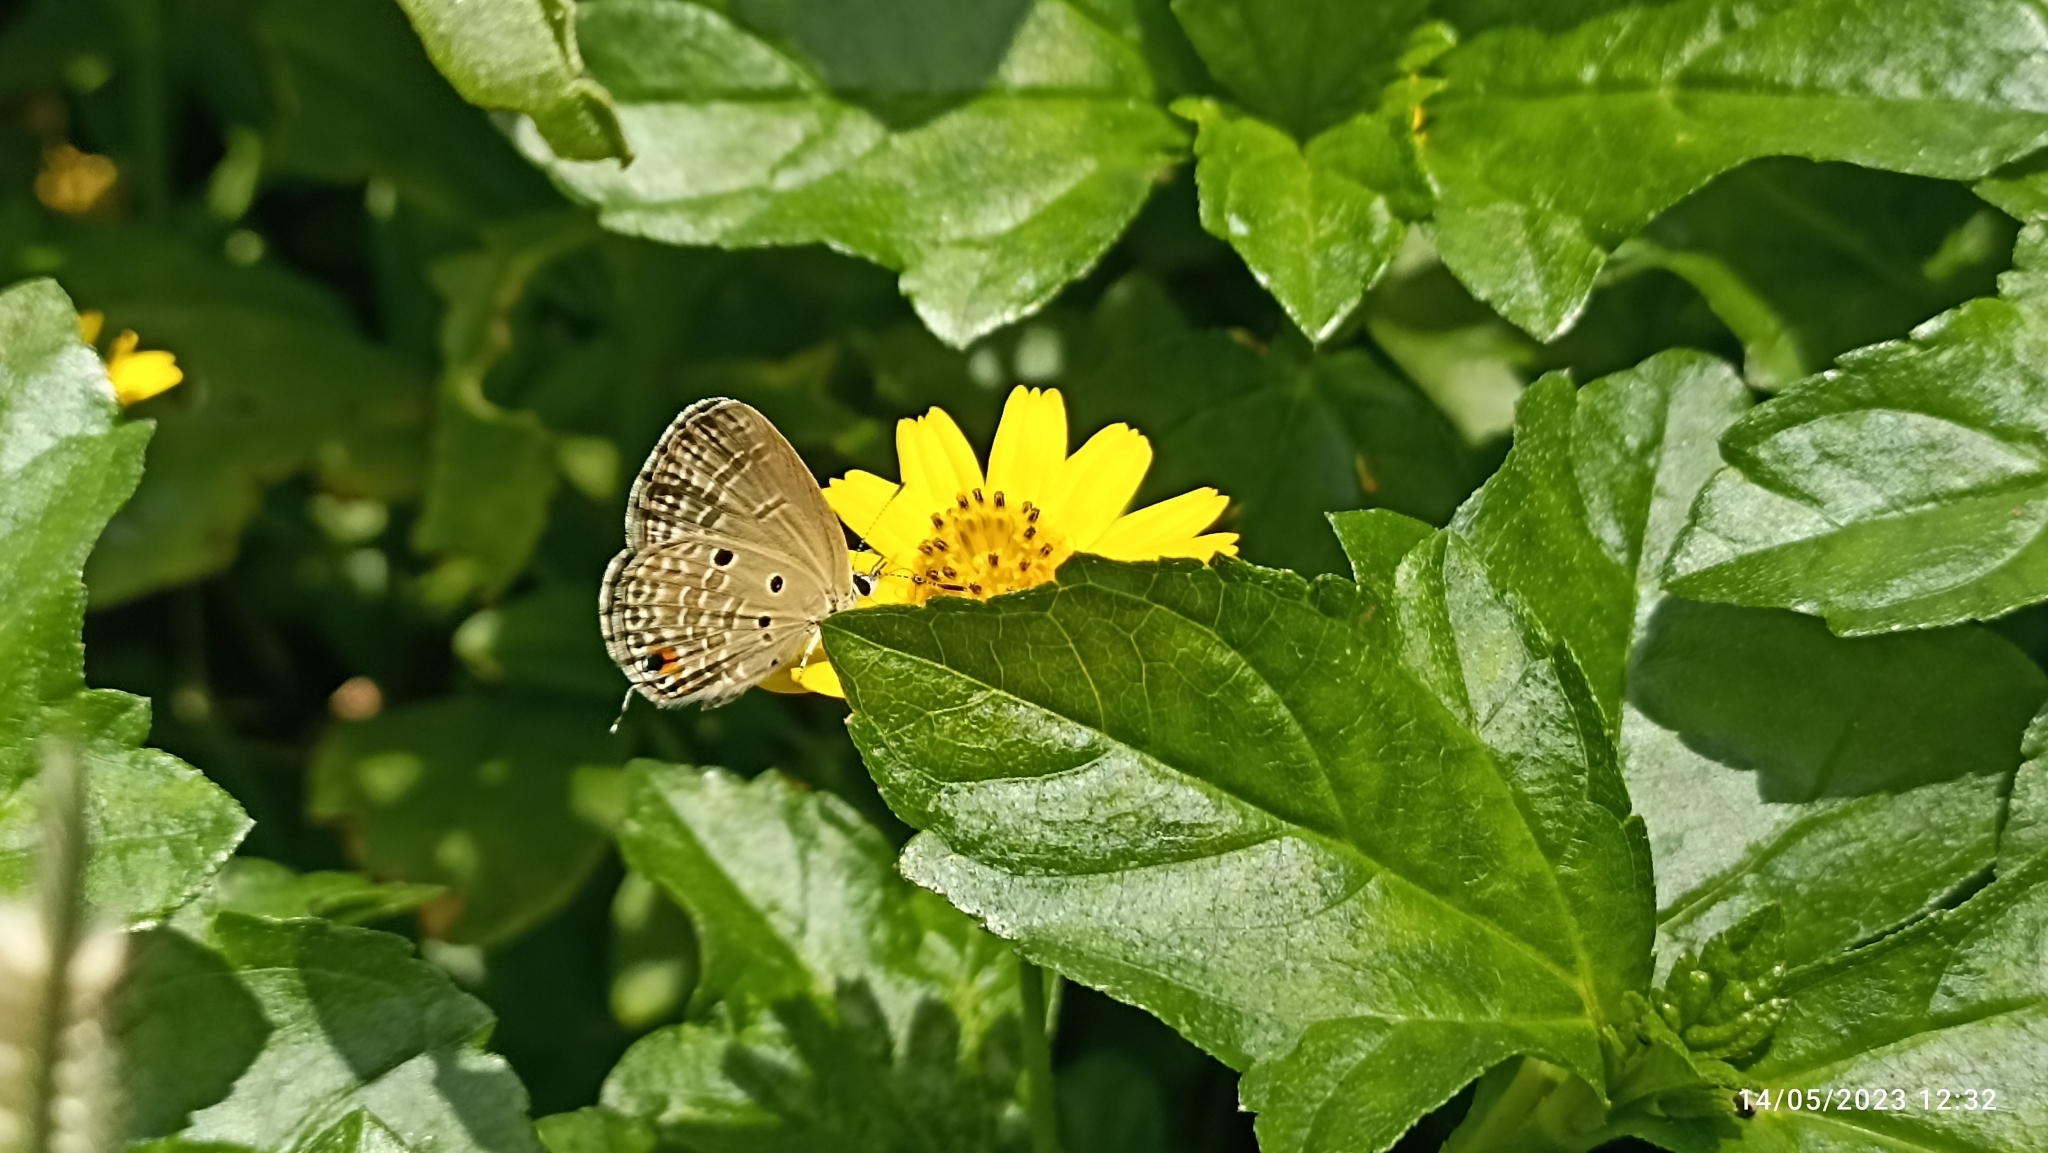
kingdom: Animalia
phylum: Arthropoda
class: Insecta
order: Lepidoptera
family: Lycaenidae
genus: Luthrodes
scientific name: Luthrodes pandava
